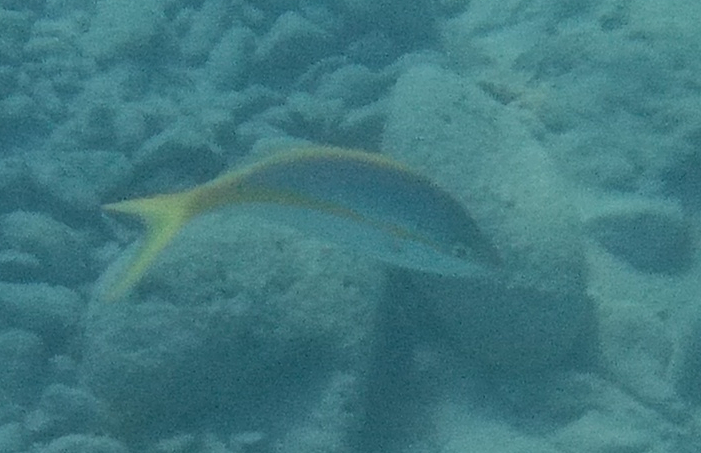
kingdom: Animalia
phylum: Chordata
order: Perciformes
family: Lutjanidae
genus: Ocyurus
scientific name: Ocyurus chrysurus
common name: Yellowtail snapper
